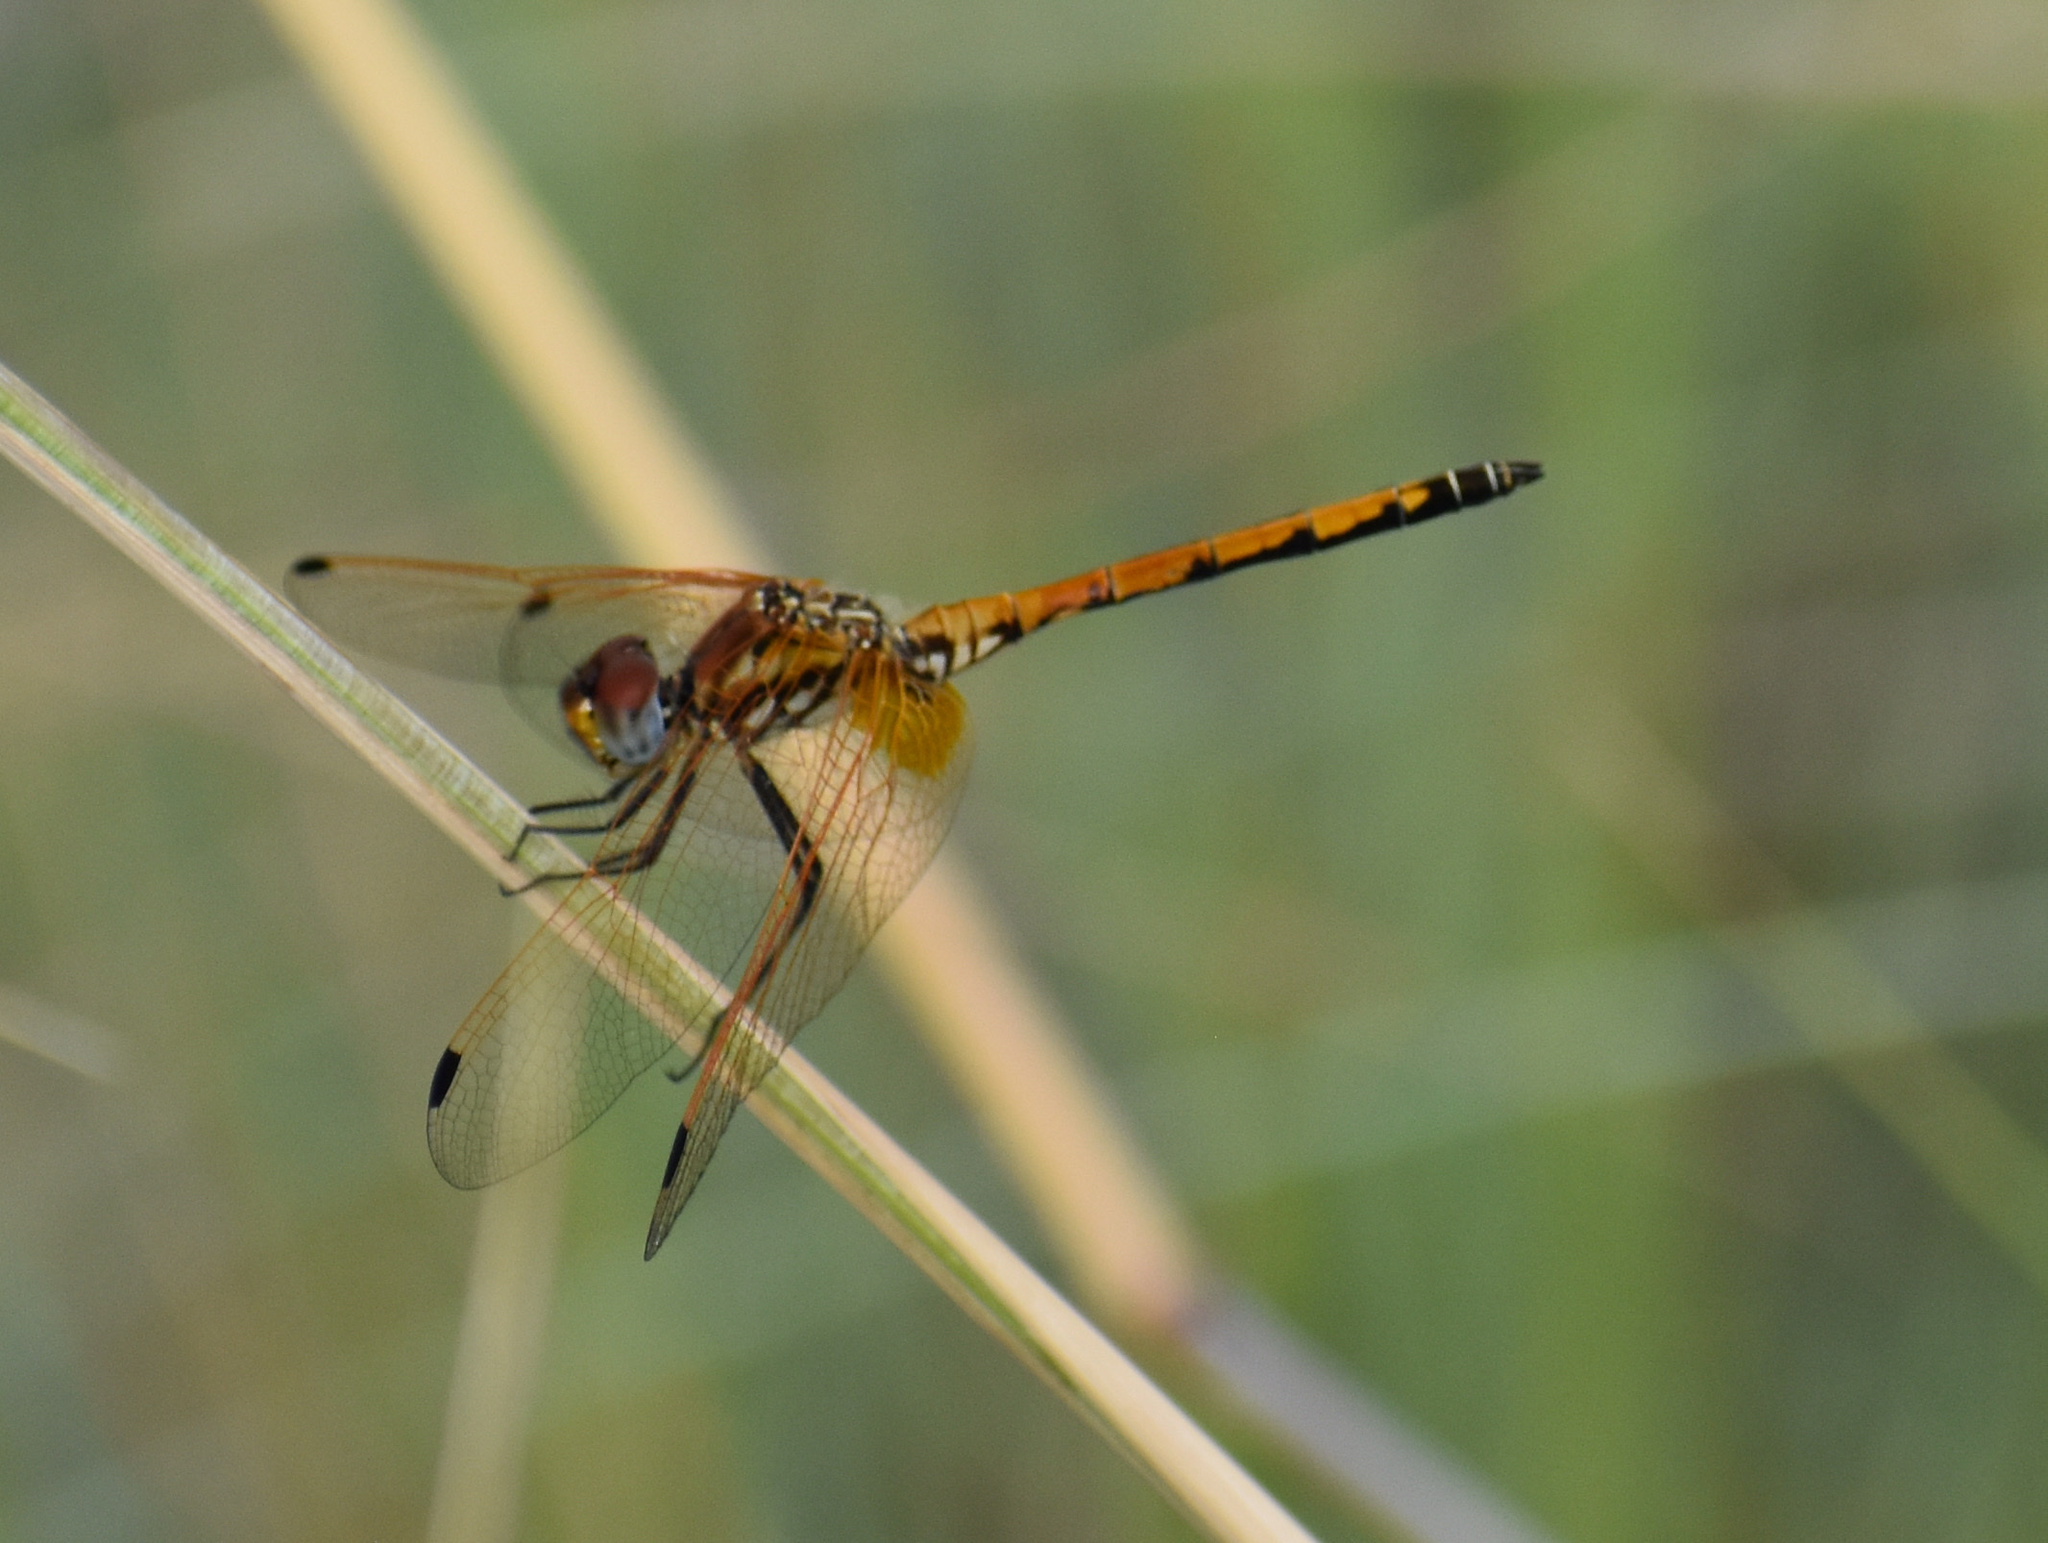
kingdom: Animalia
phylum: Arthropoda
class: Insecta
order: Odonata
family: Libellulidae
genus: Trithemis
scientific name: Trithemis arteriosa
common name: Red-veined dropwing
